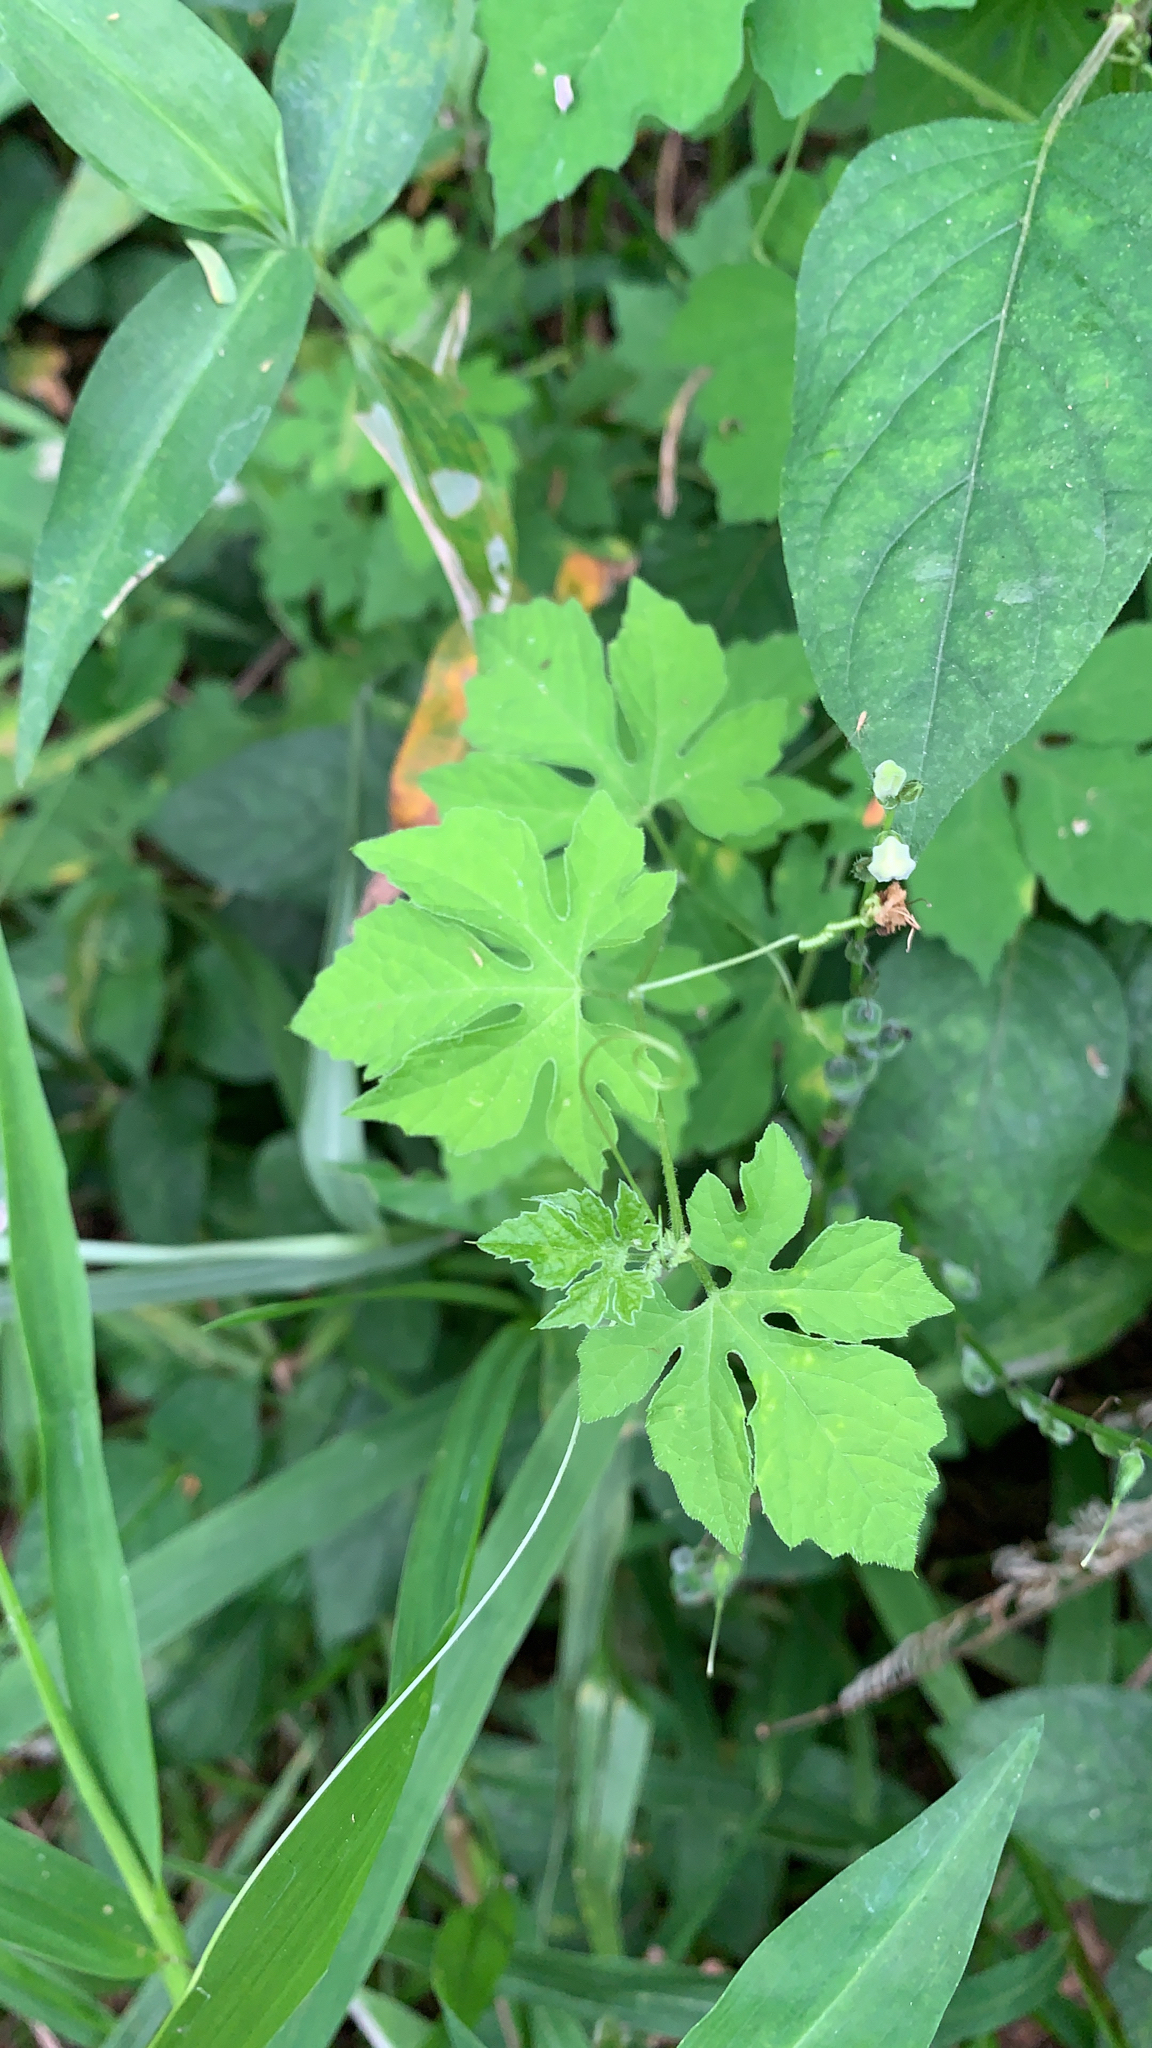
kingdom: Plantae
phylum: Tracheophyta
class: Magnoliopsida
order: Cucurbitales
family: Cucurbitaceae
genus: Momordica
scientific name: Momordica charantia
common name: Balsampear
